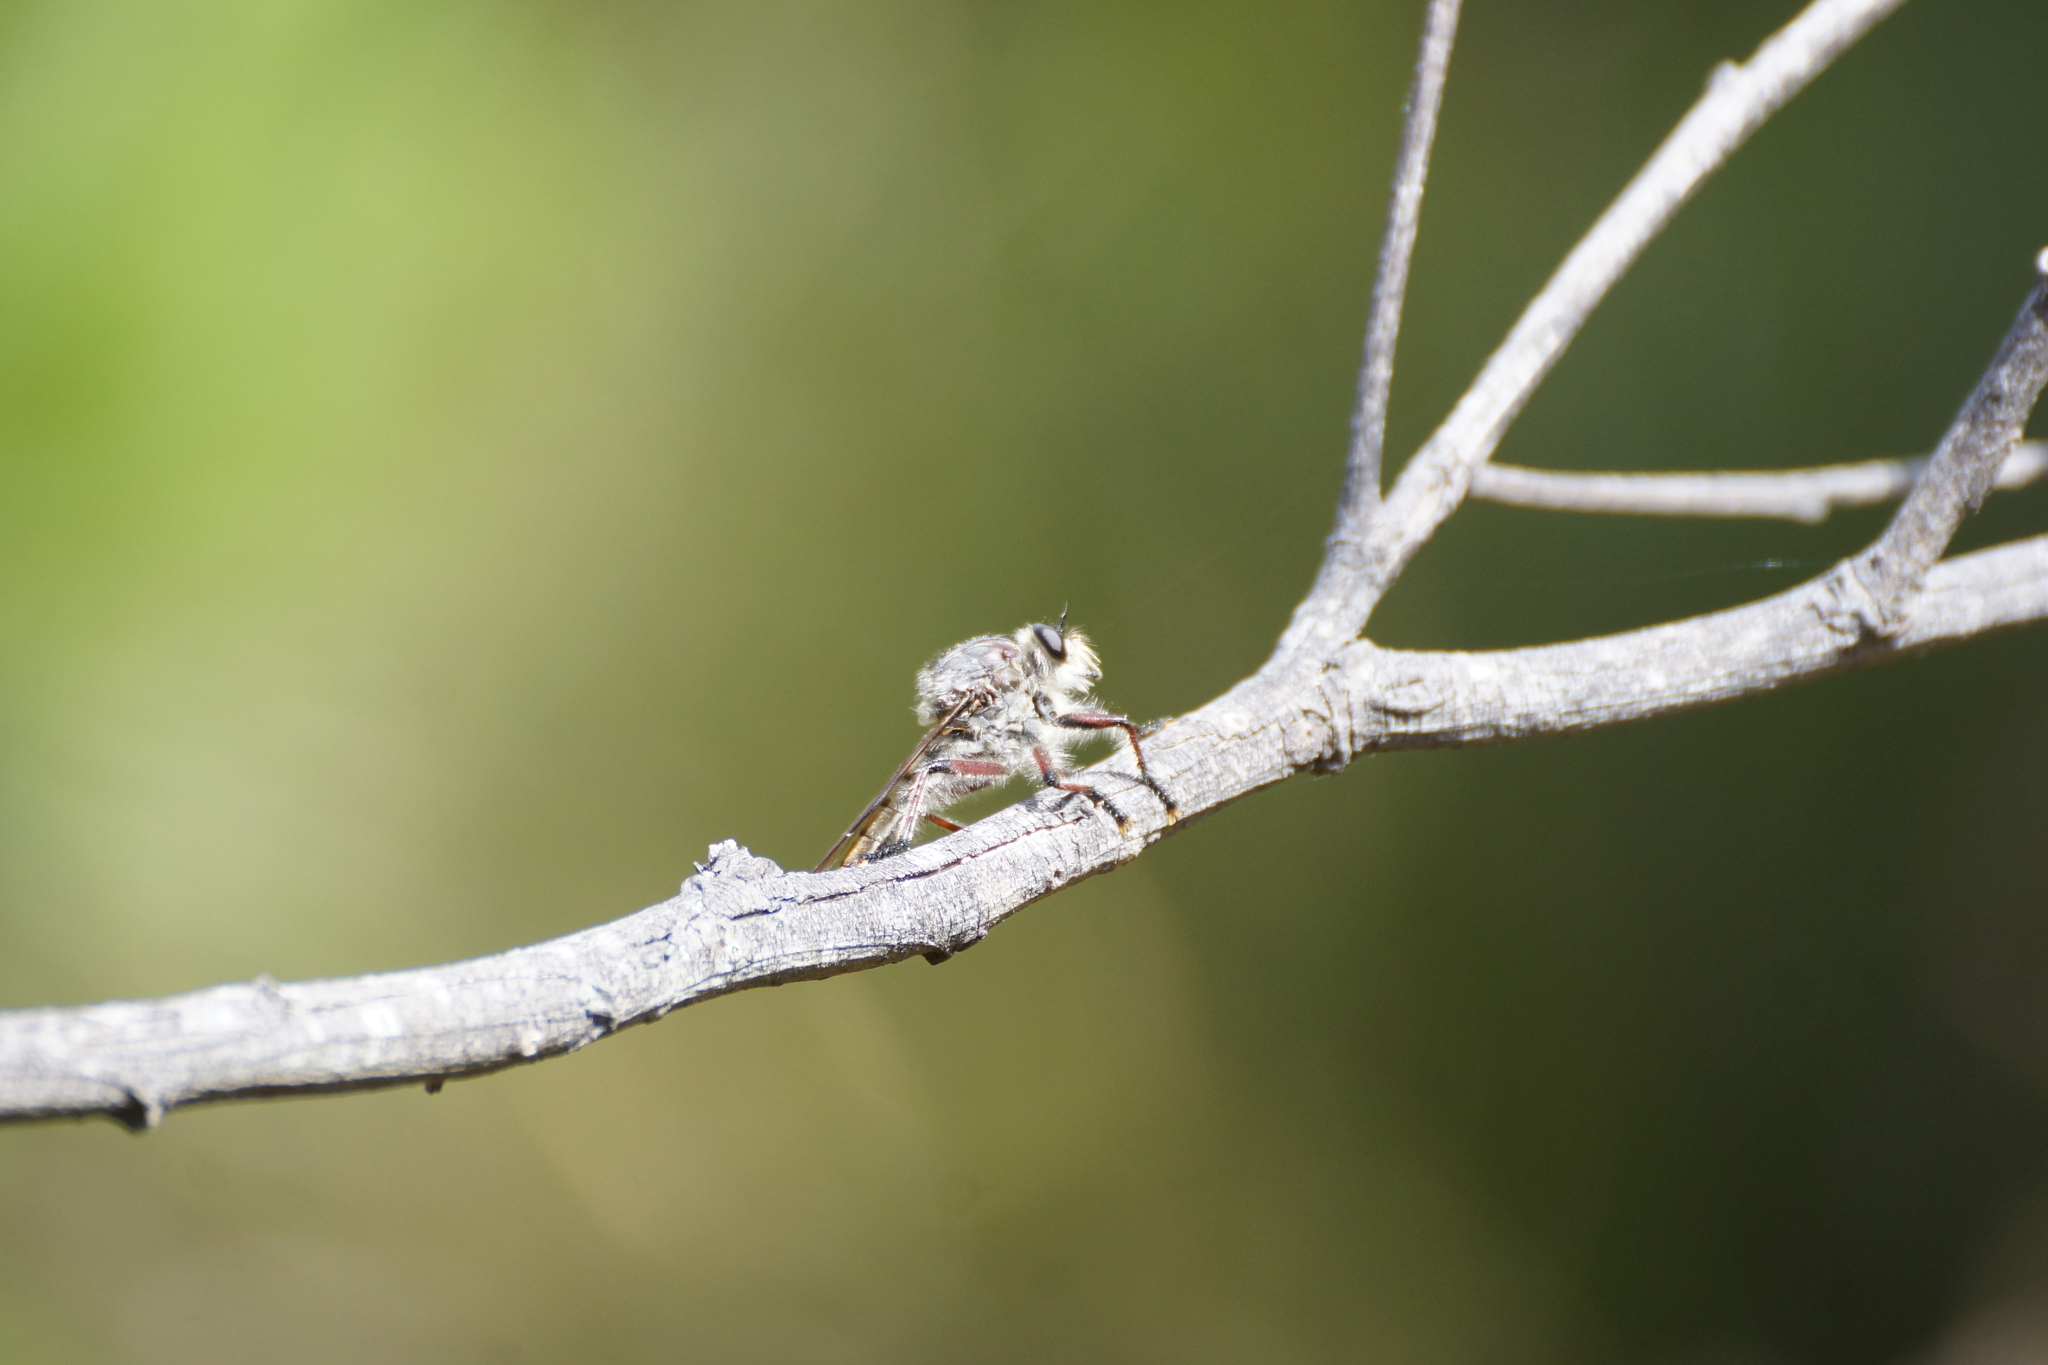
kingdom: Animalia
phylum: Arthropoda
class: Insecta
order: Diptera
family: Asilidae
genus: Neoaratus
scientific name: Neoaratus hercules
